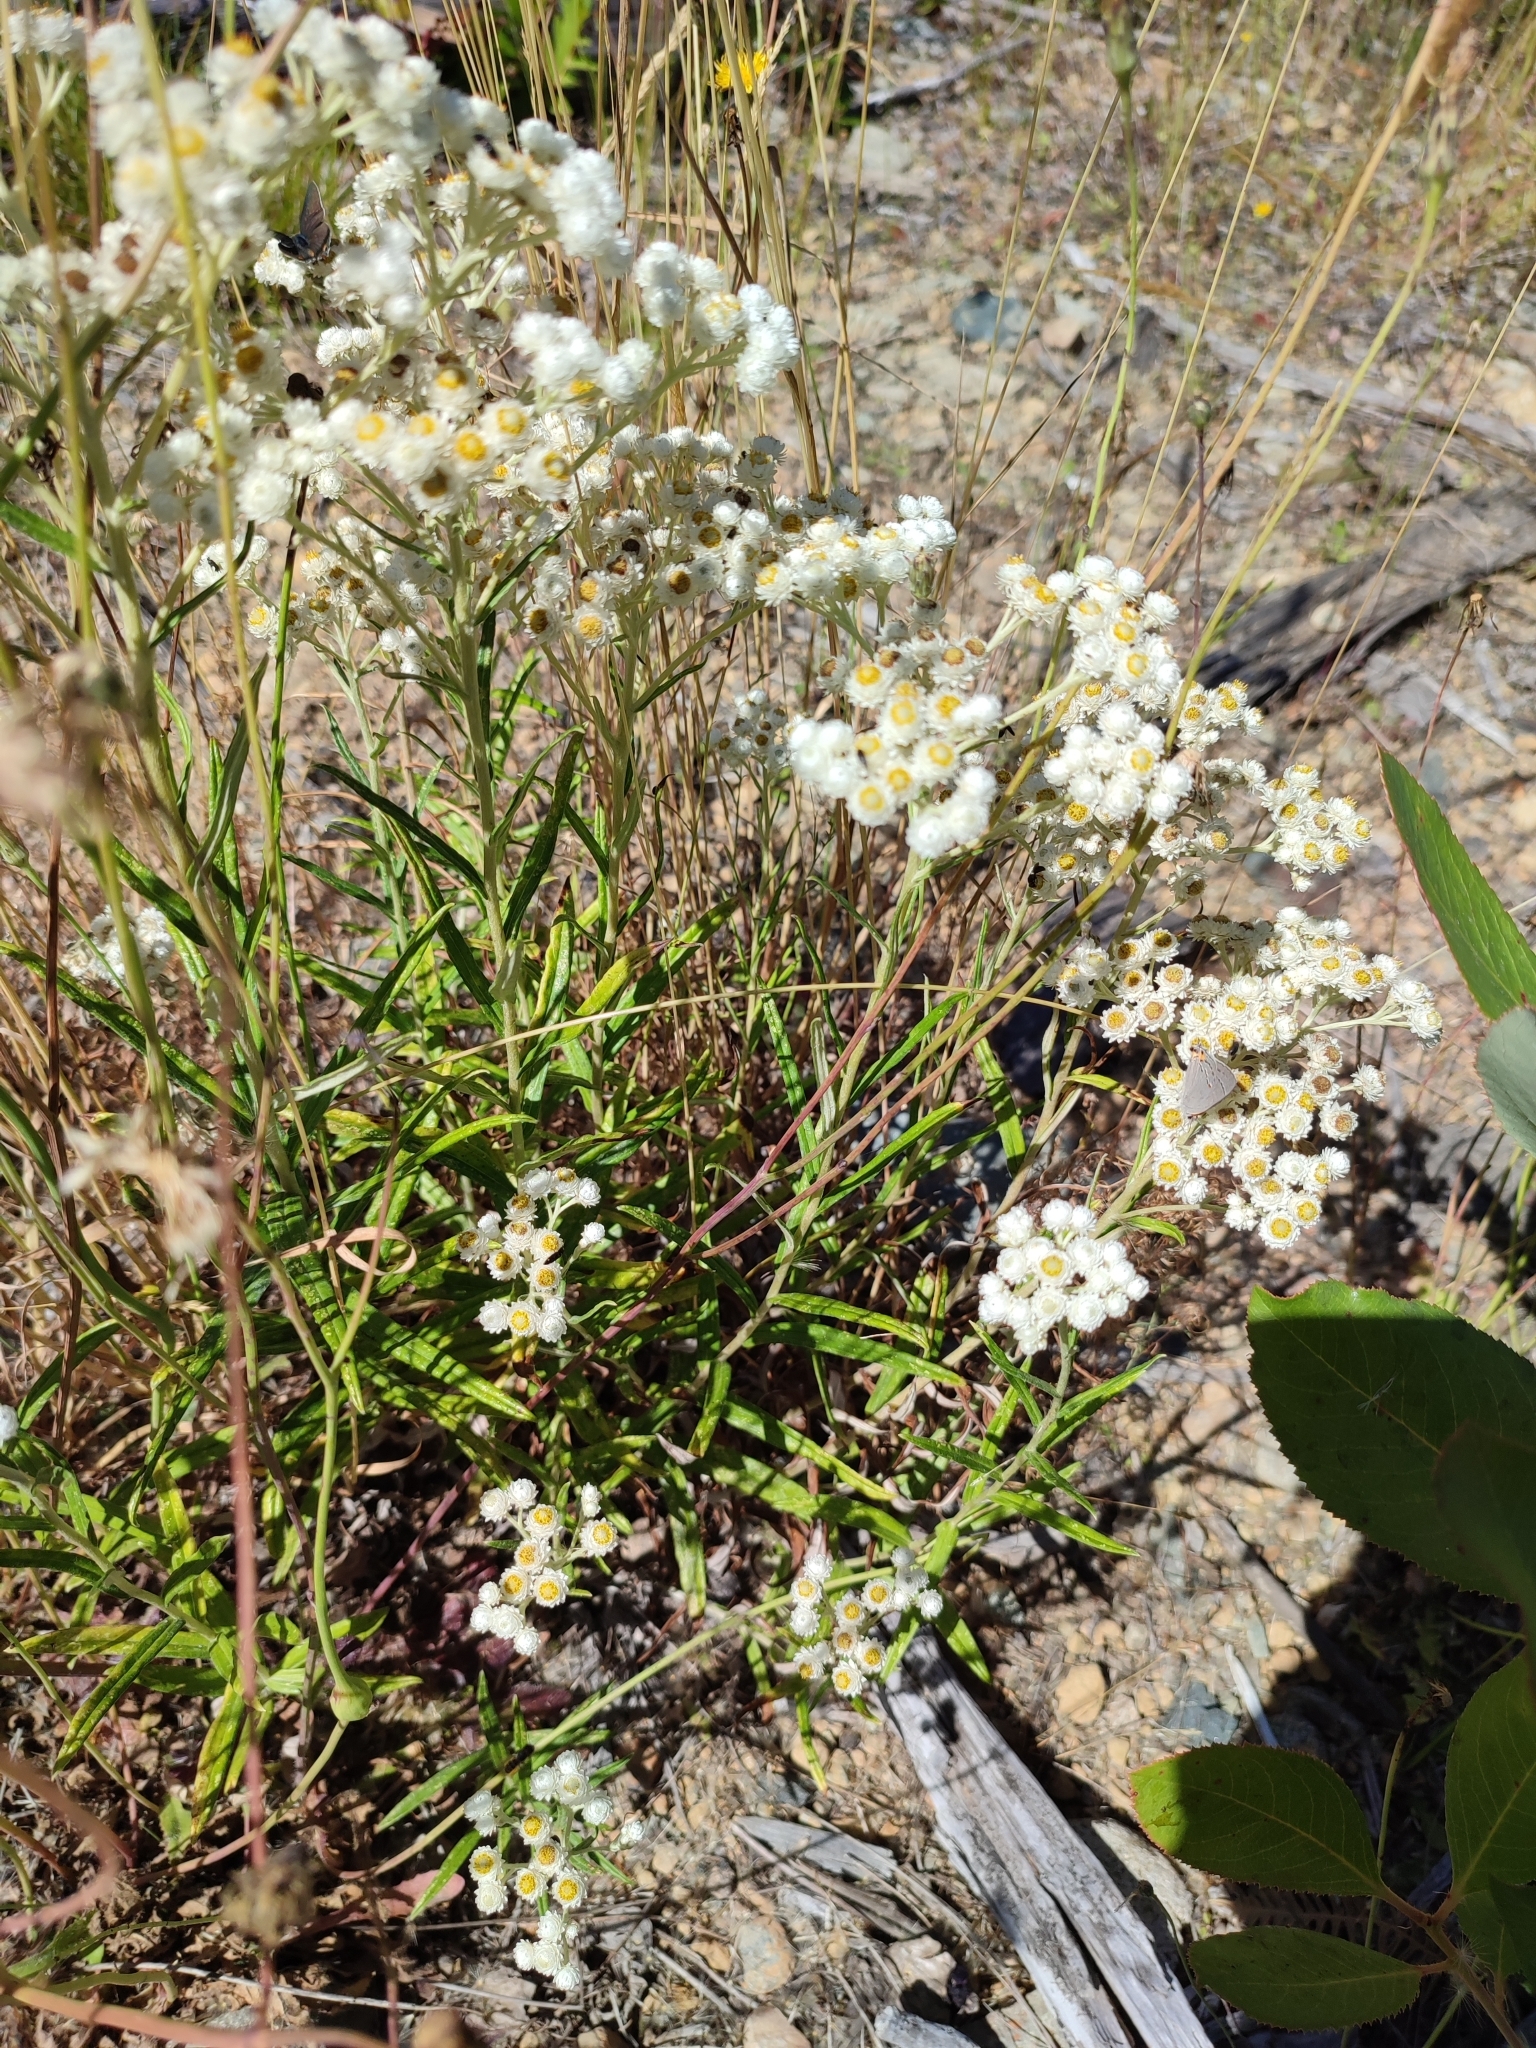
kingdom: Plantae
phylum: Tracheophyta
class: Magnoliopsida
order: Asterales
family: Asteraceae
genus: Anaphalis
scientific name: Anaphalis margaritacea
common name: Pearly everlasting
